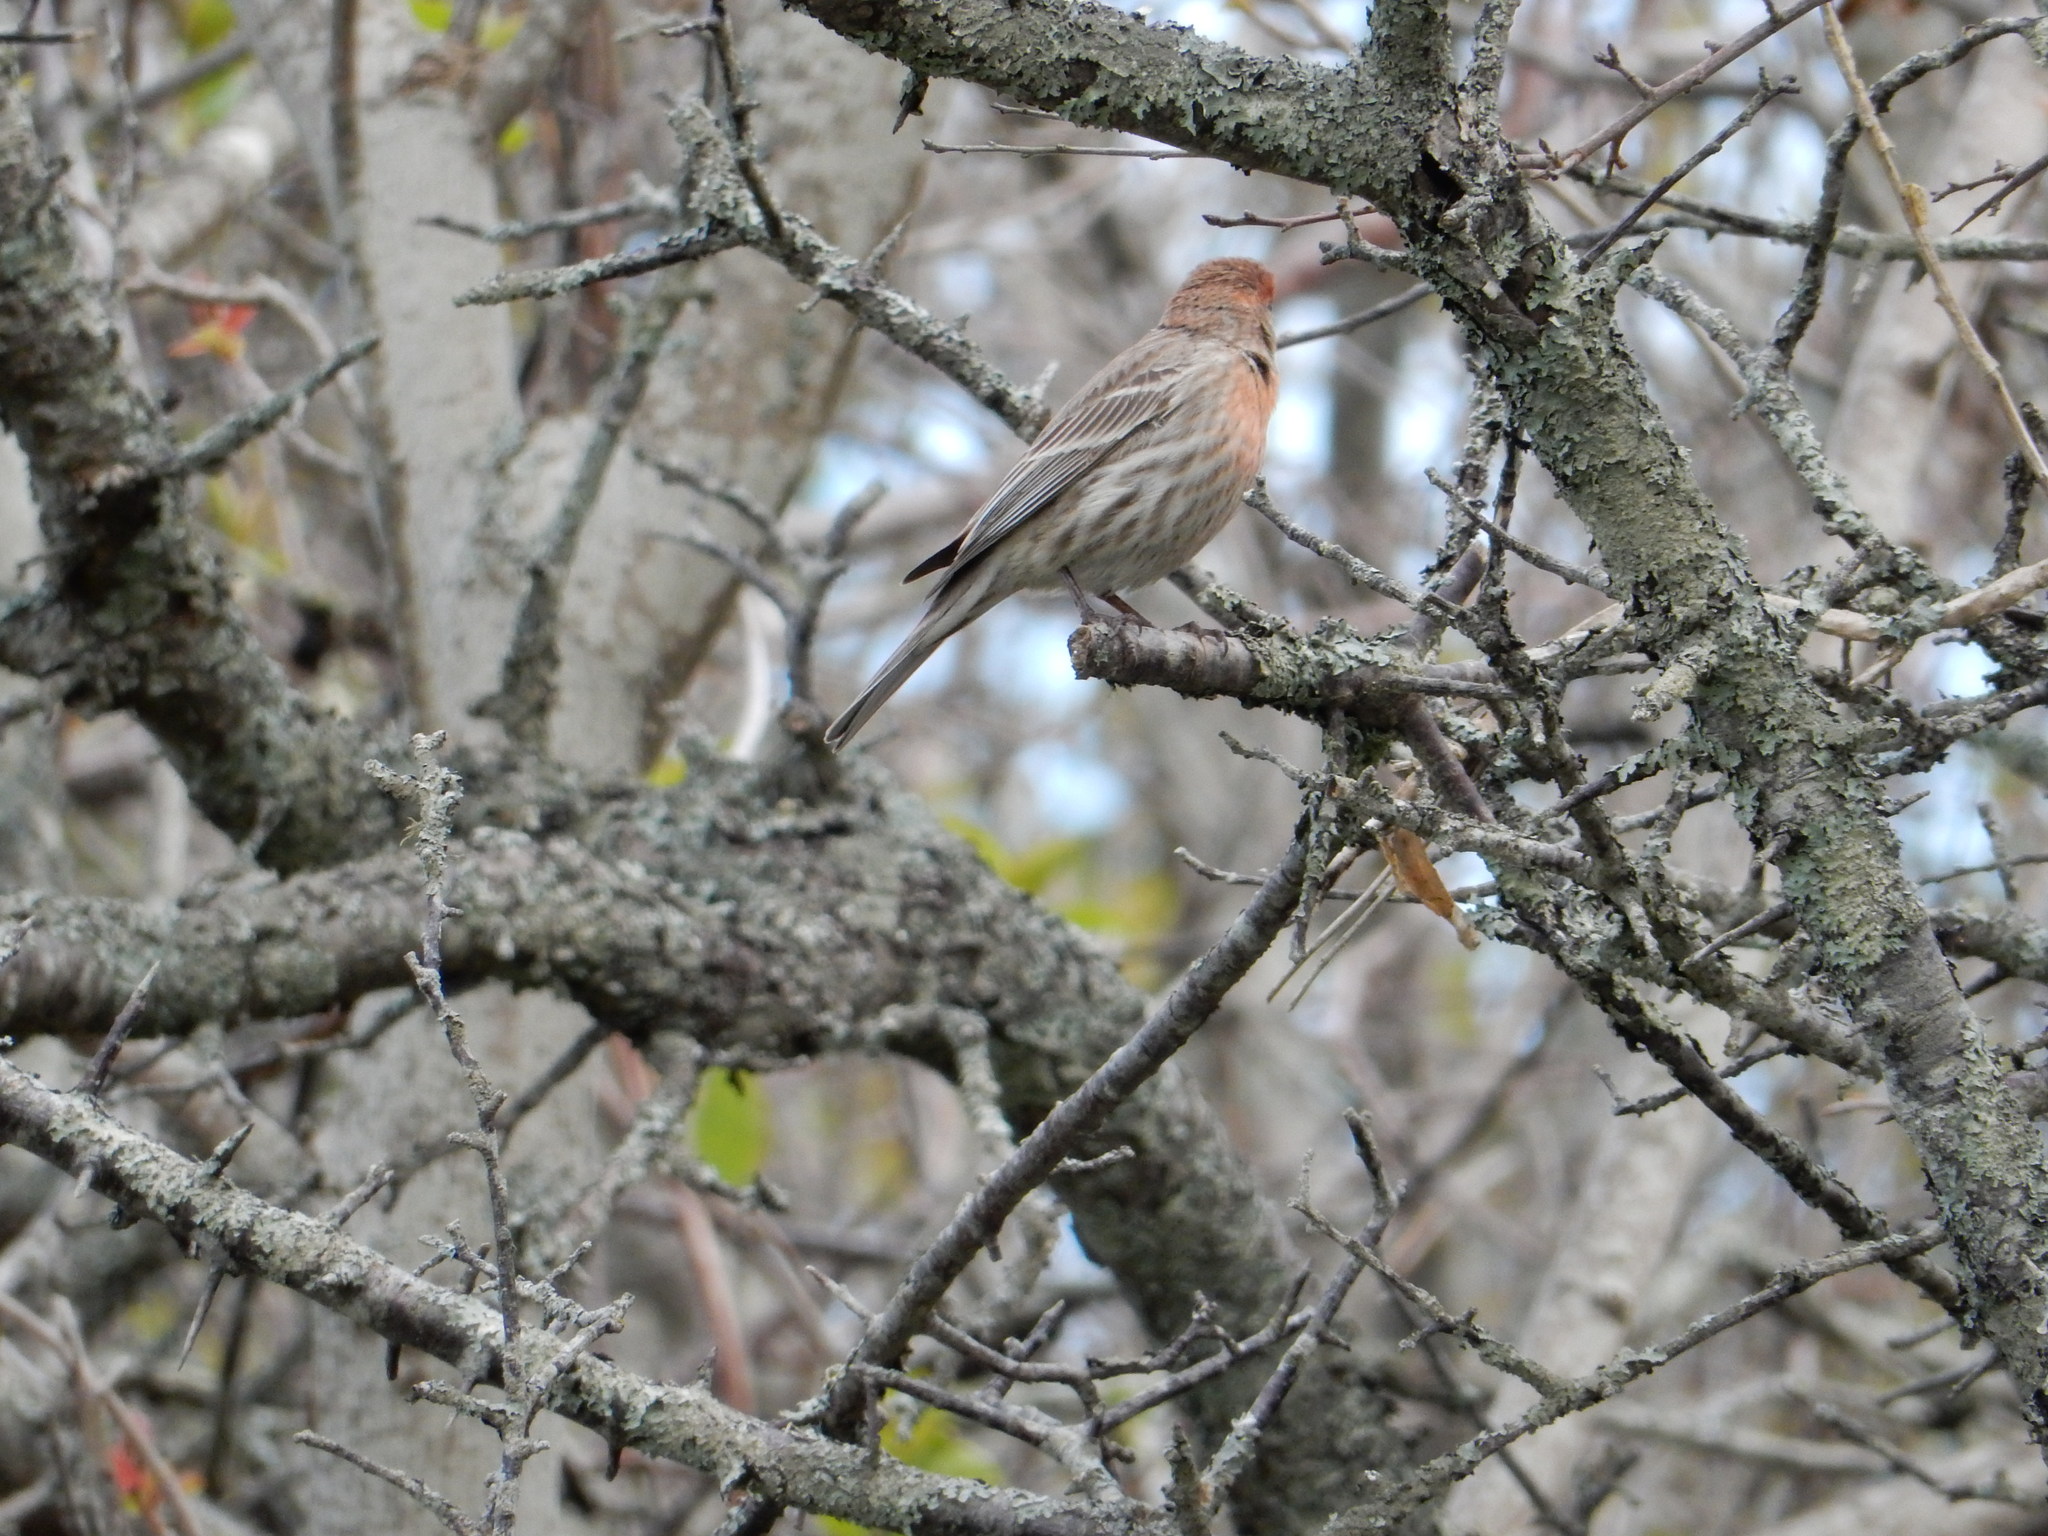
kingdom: Animalia
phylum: Chordata
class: Aves
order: Passeriformes
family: Fringillidae
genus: Haemorhous
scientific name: Haemorhous mexicanus
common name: House finch
